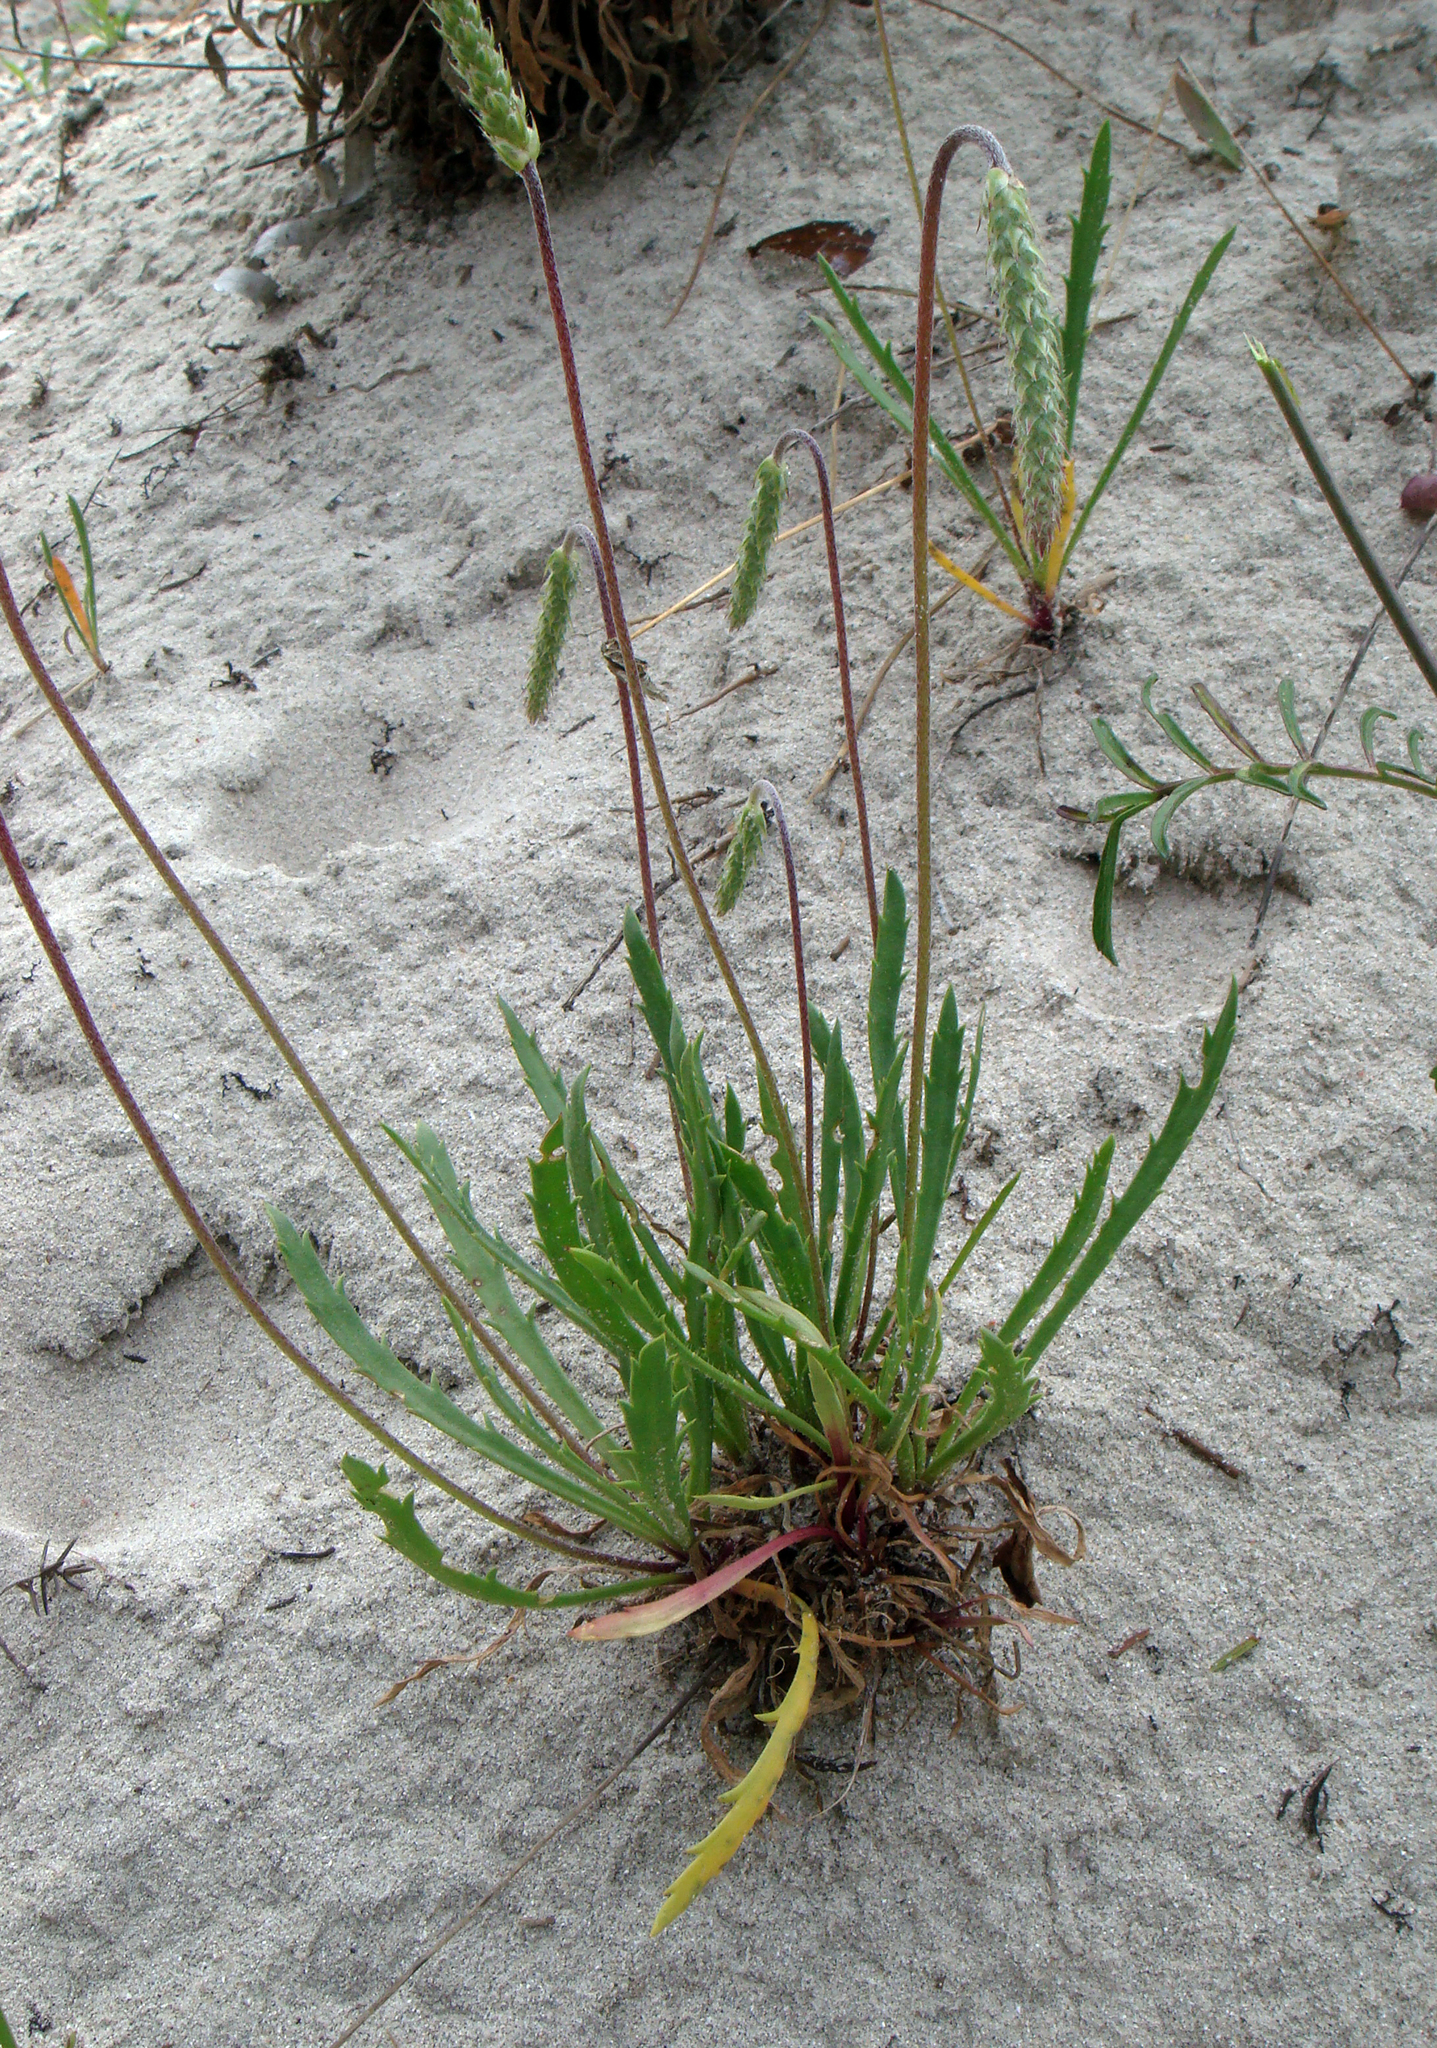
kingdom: Plantae
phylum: Tracheophyta
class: Magnoliopsida
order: Lamiales
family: Plantaginaceae
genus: Plantago
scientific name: Plantago coronopus
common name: Buck's-horn plantain
